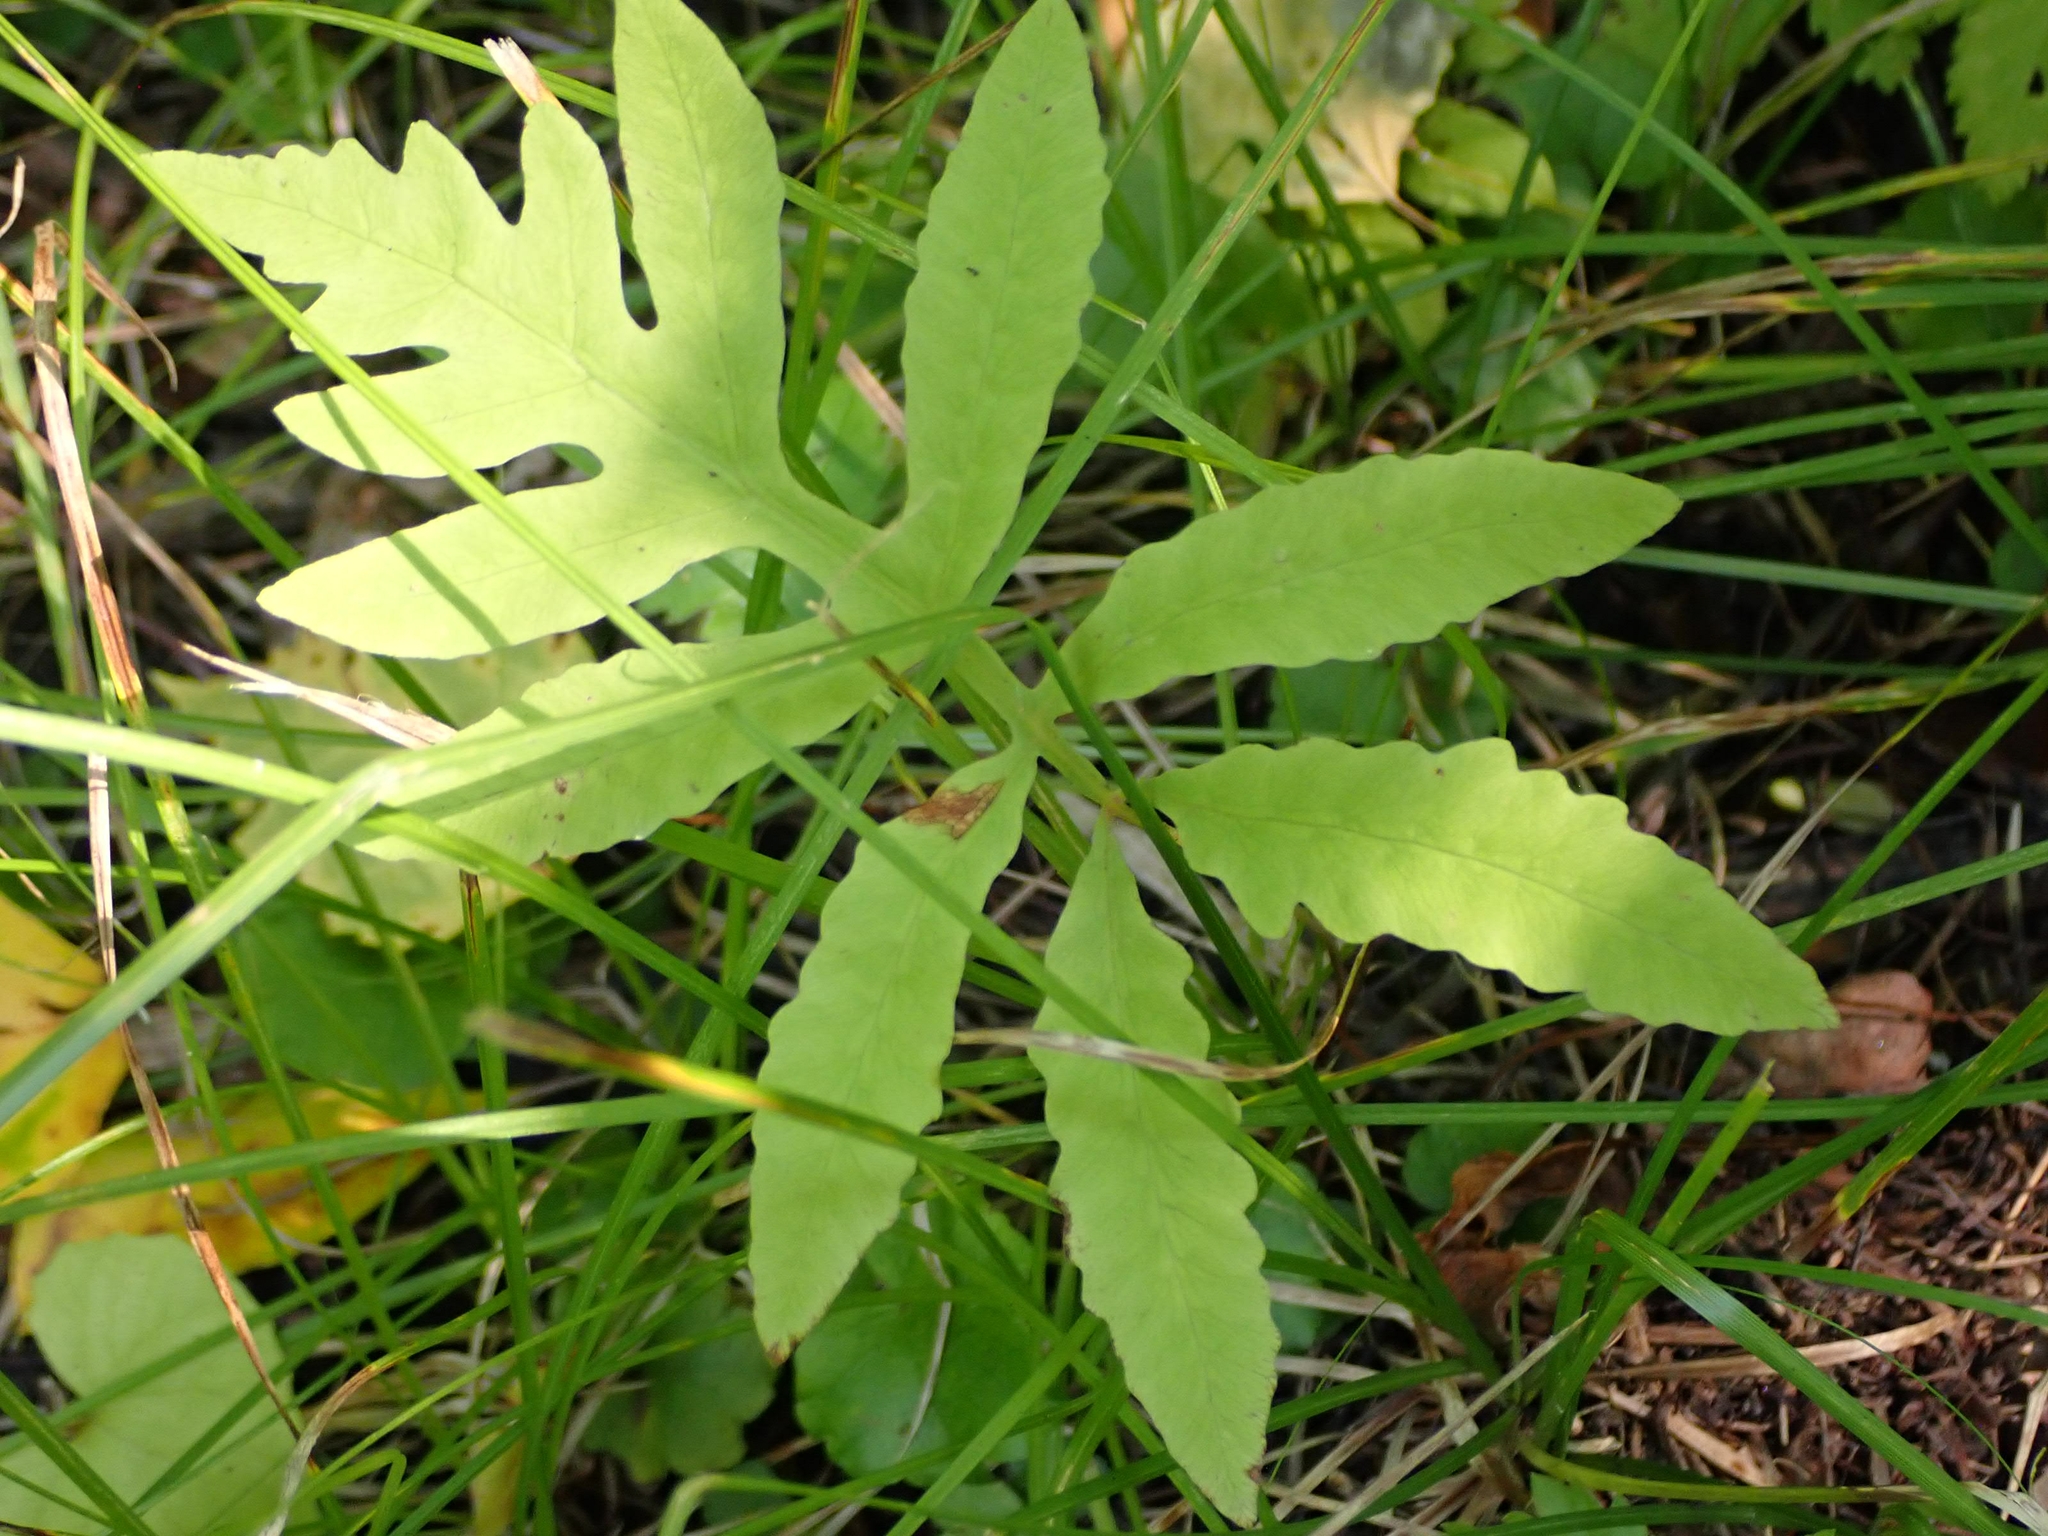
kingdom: Plantae
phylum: Tracheophyta
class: Polypodiopsida
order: Polypodiales
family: Onocleaceae
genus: Onoclea
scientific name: Onoclea sensibilis
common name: Sensitive fern
